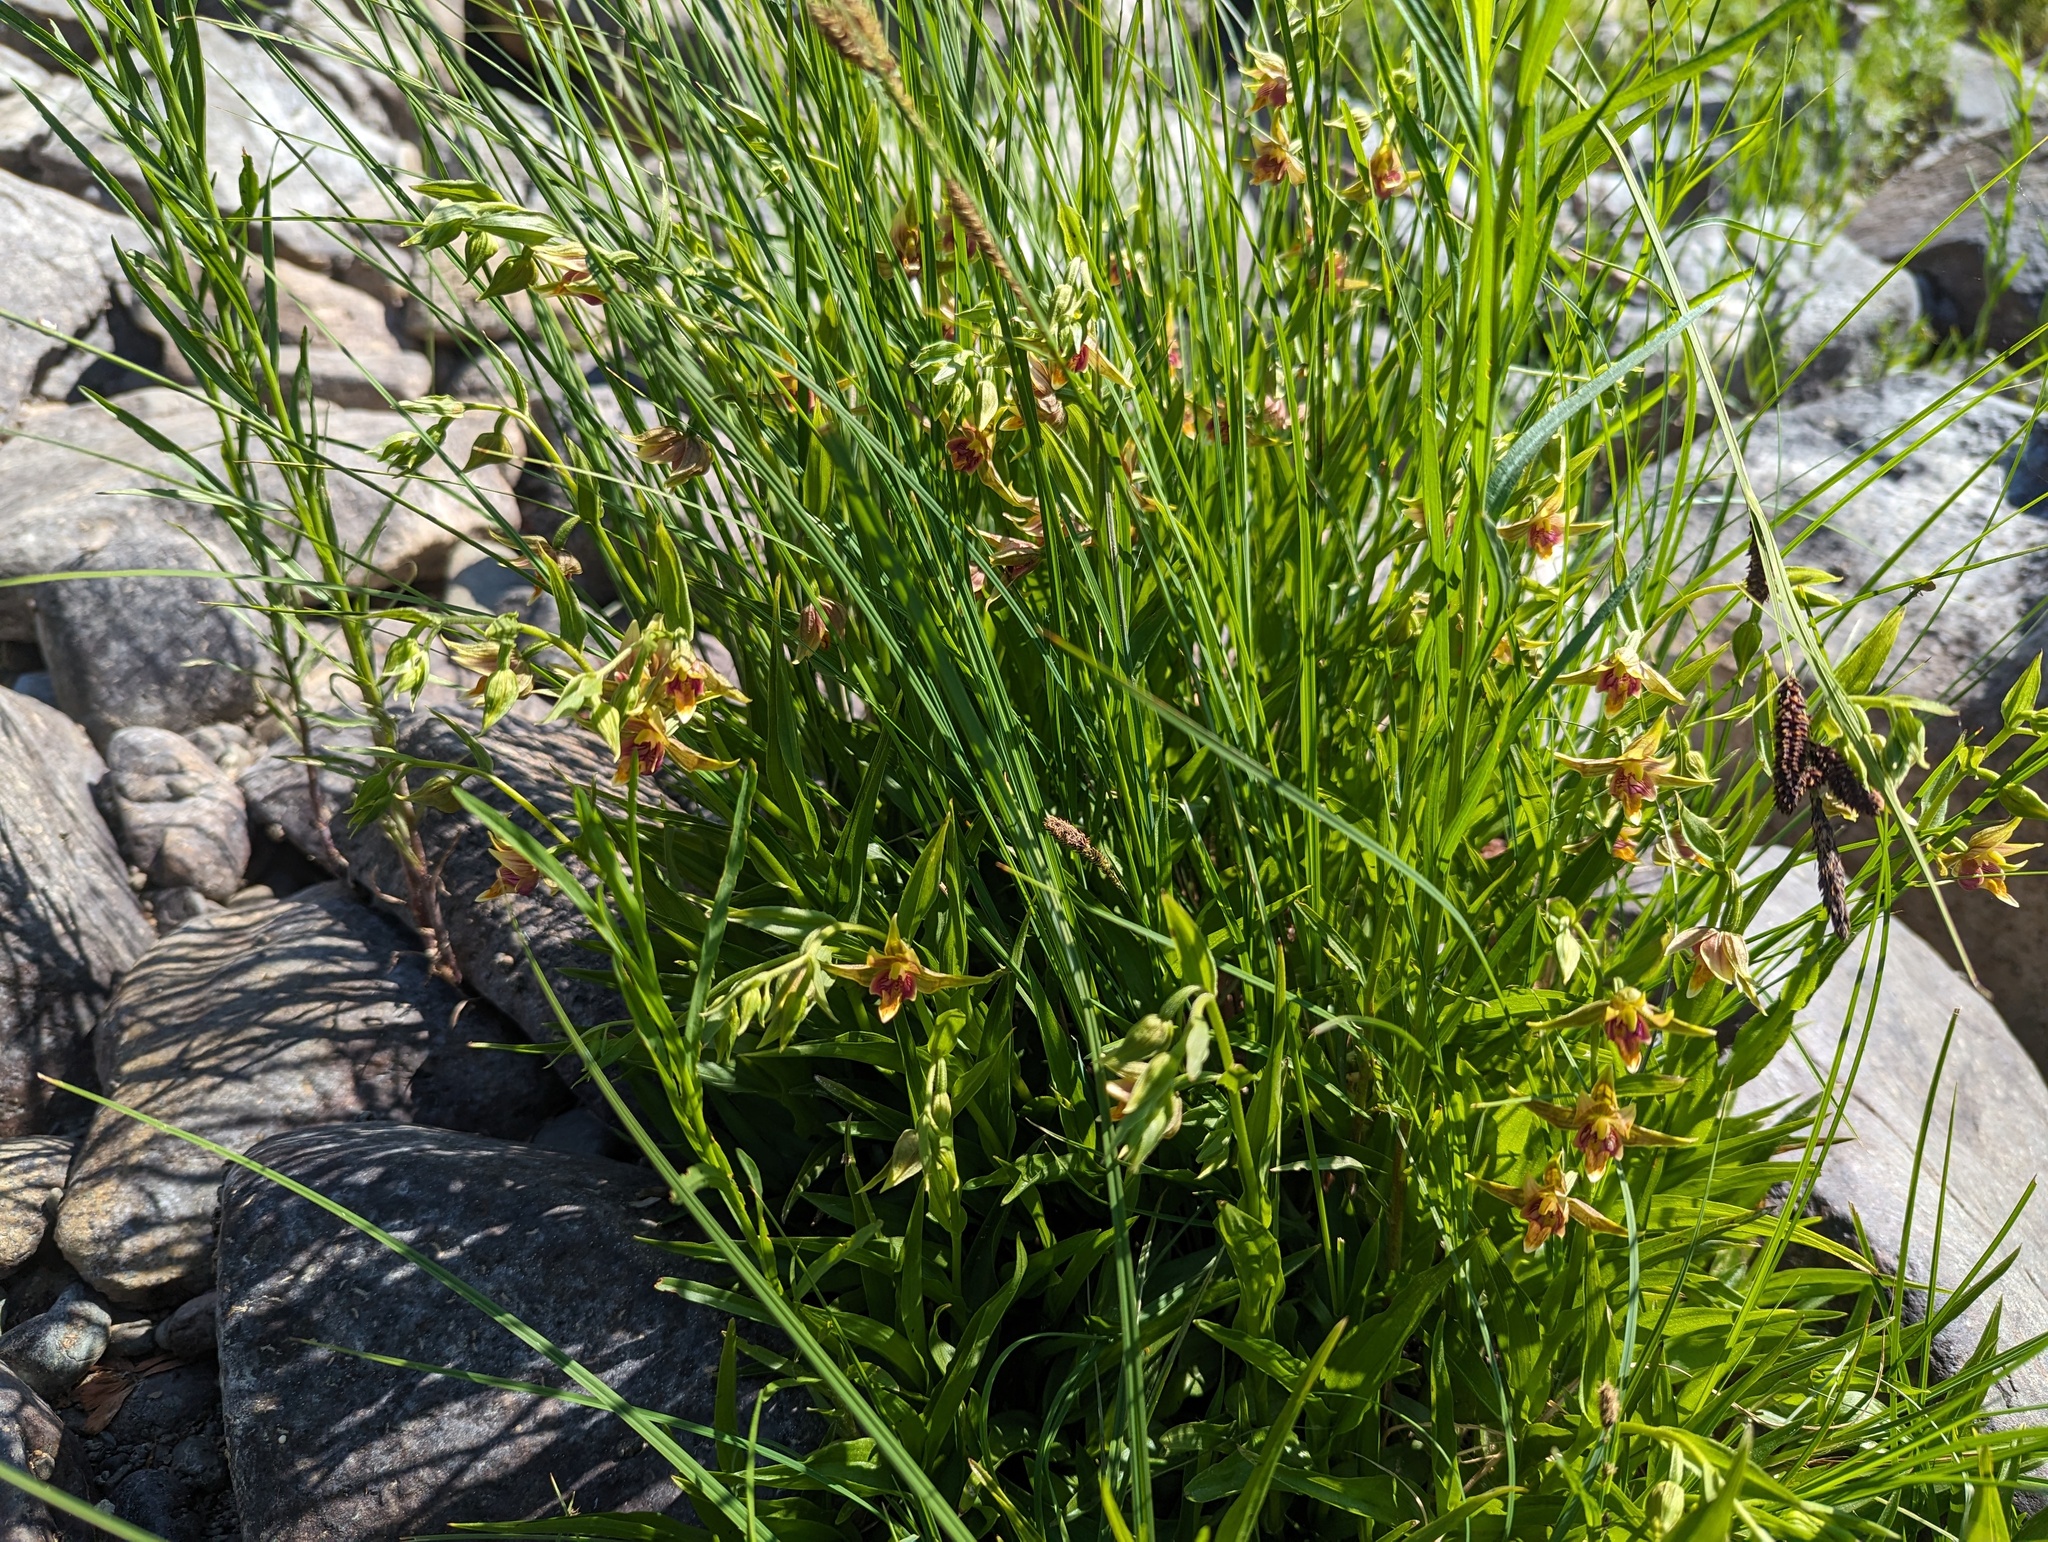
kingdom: Plantae
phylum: Tracheophyta
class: Liliopsida
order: Asparagales
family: Orchidaceae
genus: Epipactis
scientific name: Epipactis gigantea
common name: Chatterbox
